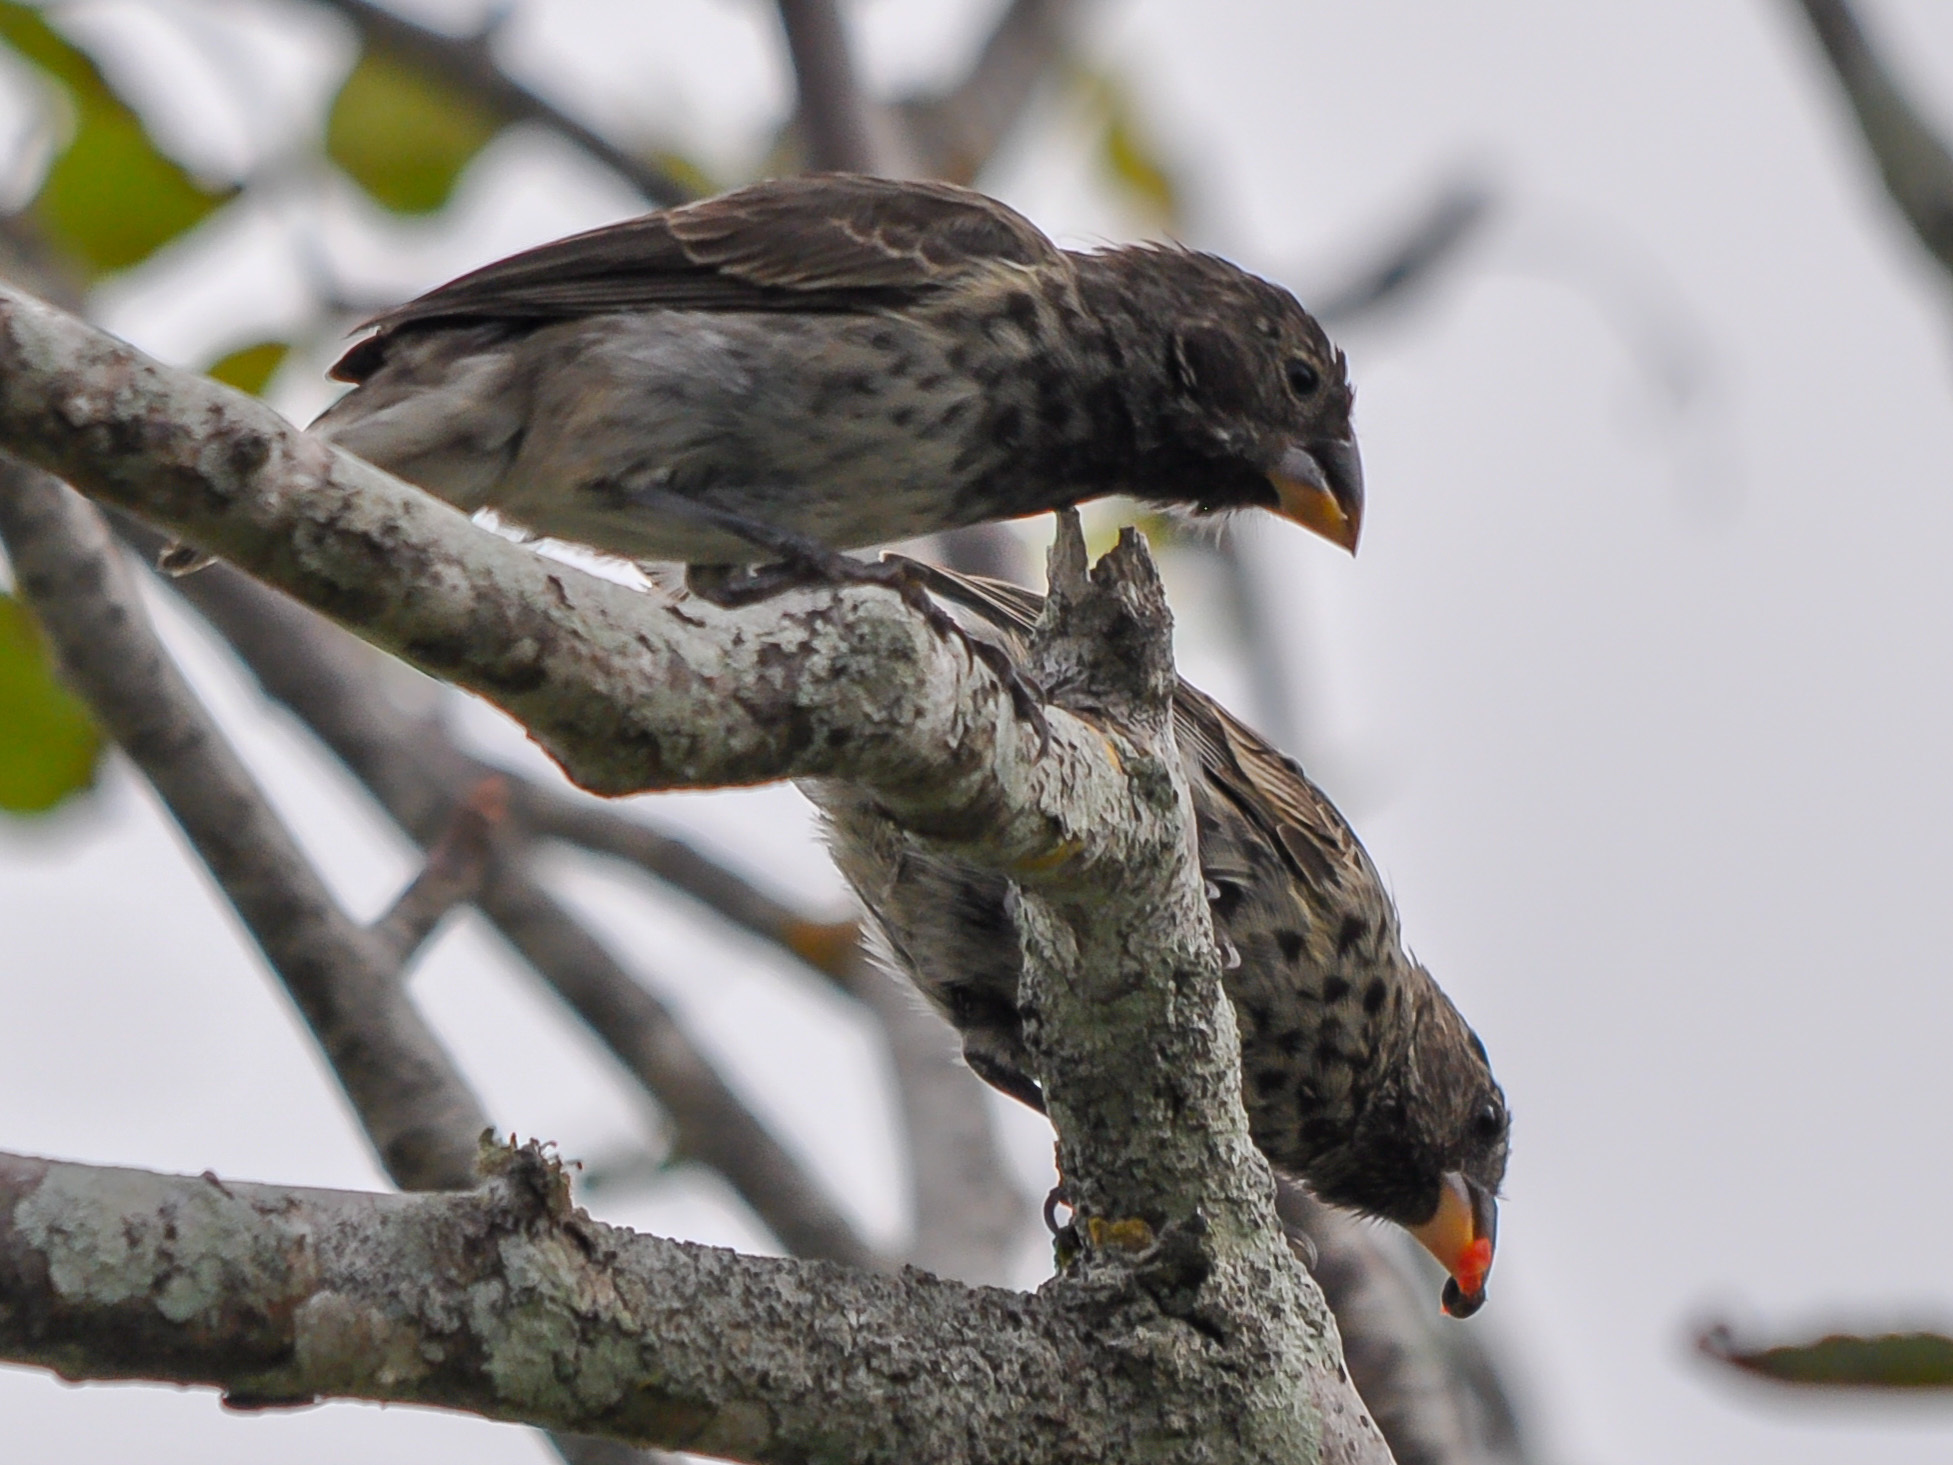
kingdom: Animalia
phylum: Chordata
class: Aves
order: Passeriformes
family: Thraupidae
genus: Geospiza
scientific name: Geospiza fortis
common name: Medium ground finch
